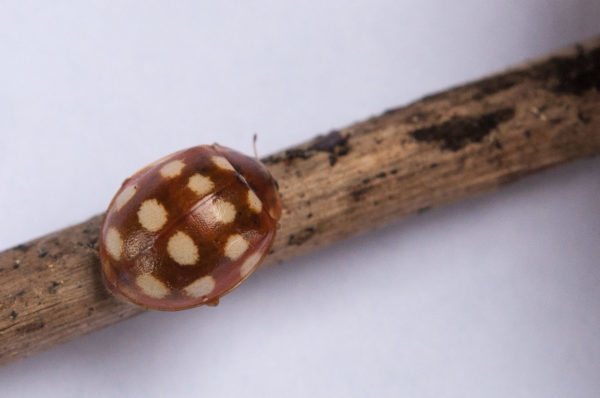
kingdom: Animalia
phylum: Arthropoda
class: Insecta
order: Coleoptera
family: Coccinellidae
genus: Calvia
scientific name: Calvia quatuordecimguttata
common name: Cream-spot ladybird
